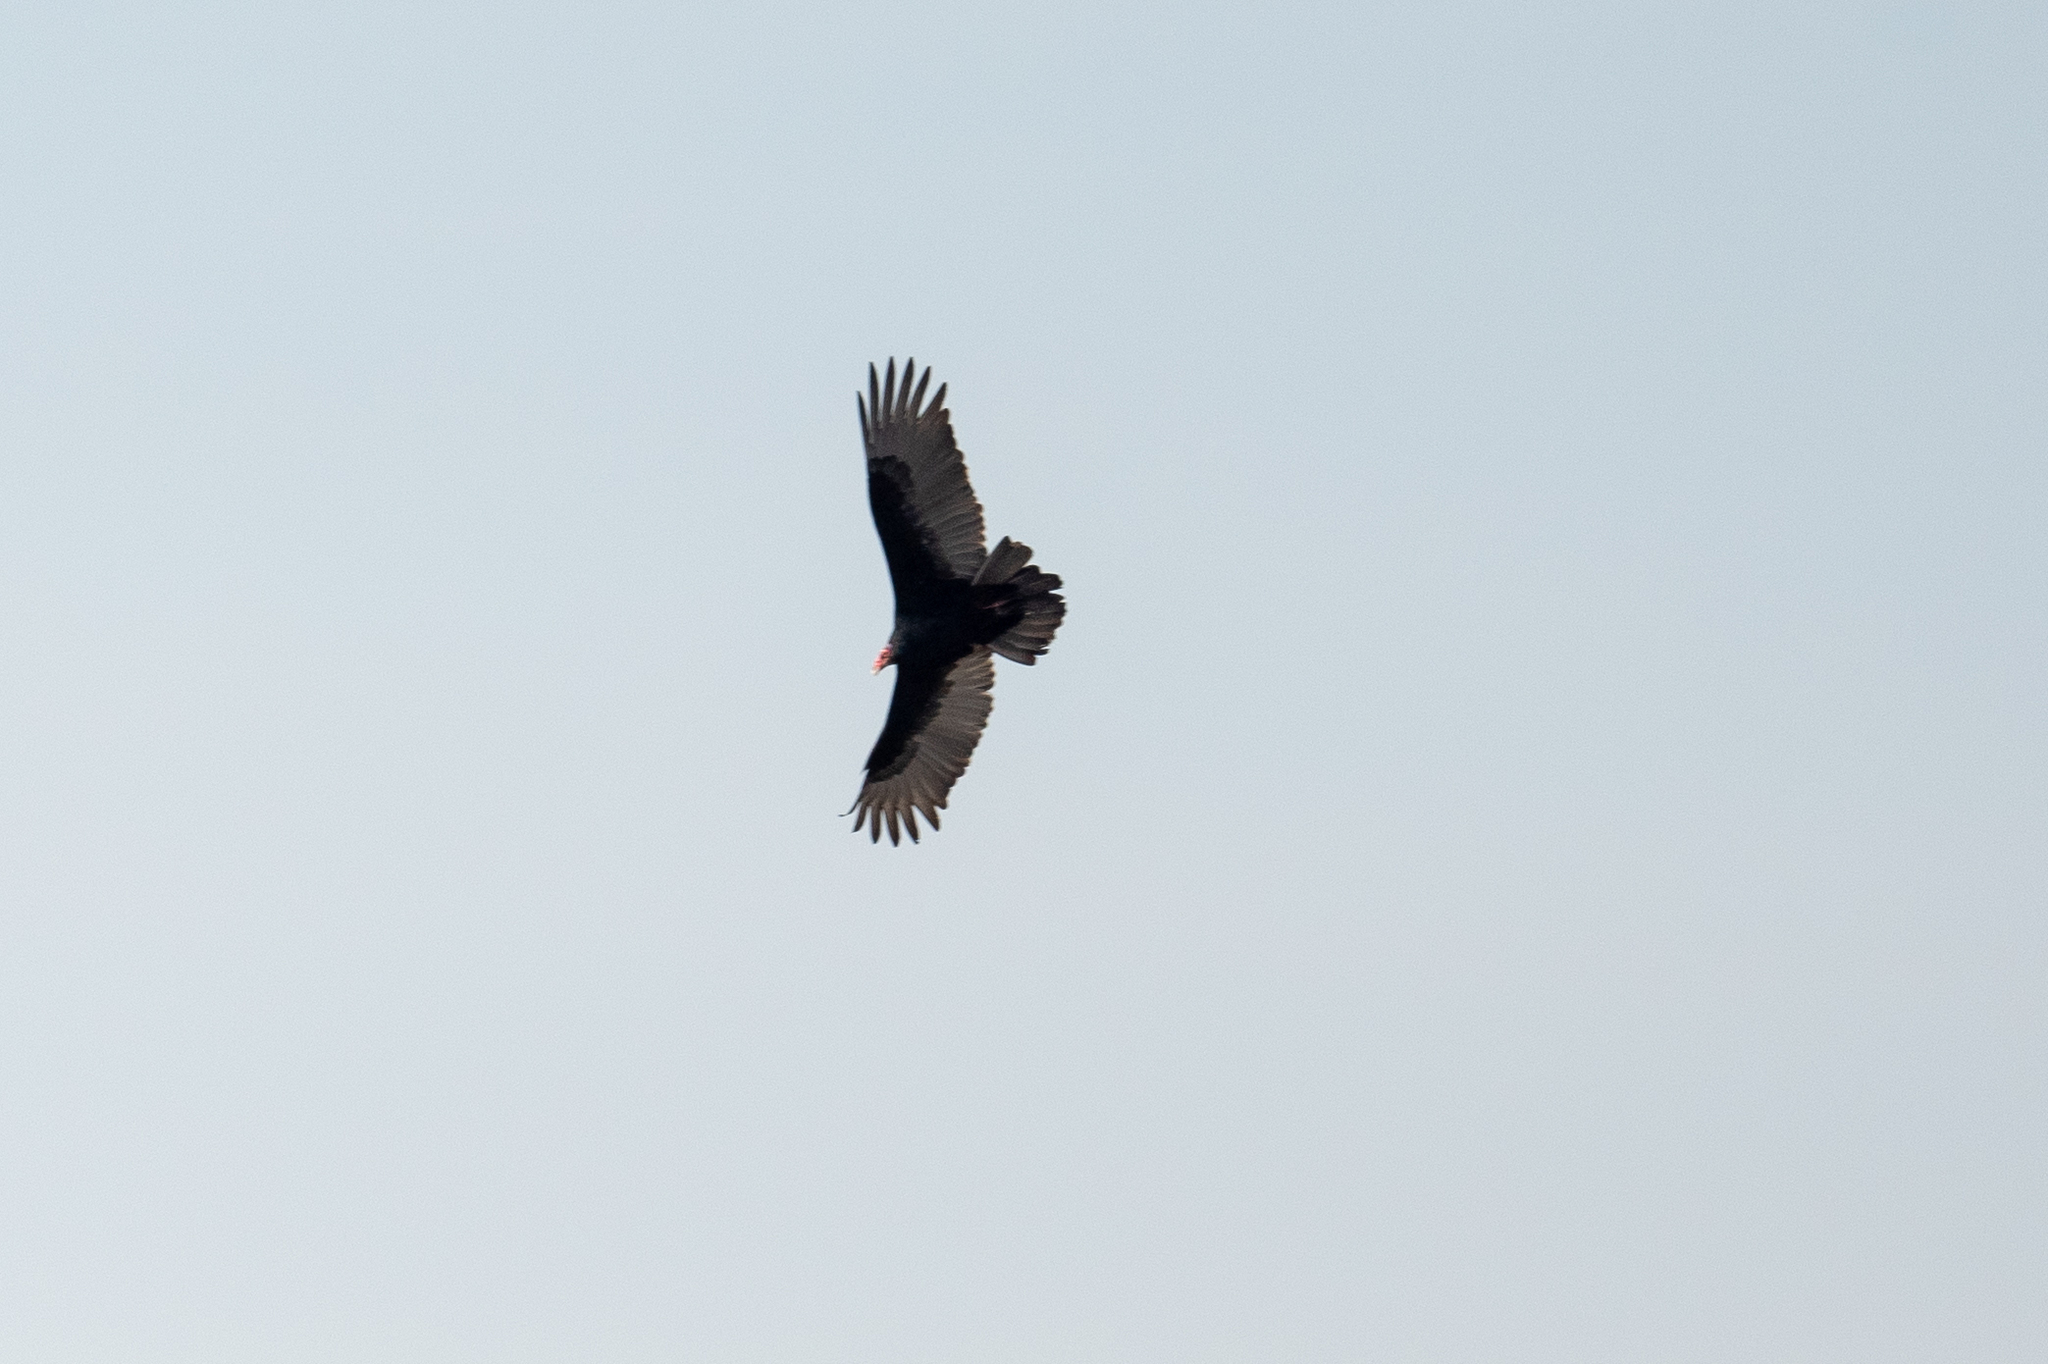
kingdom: Animalia
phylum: Chordata
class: Aves
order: Accipitriformes
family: Cathartidae
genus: Cathartes
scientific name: Cathartes aura
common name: Turkey vulture
